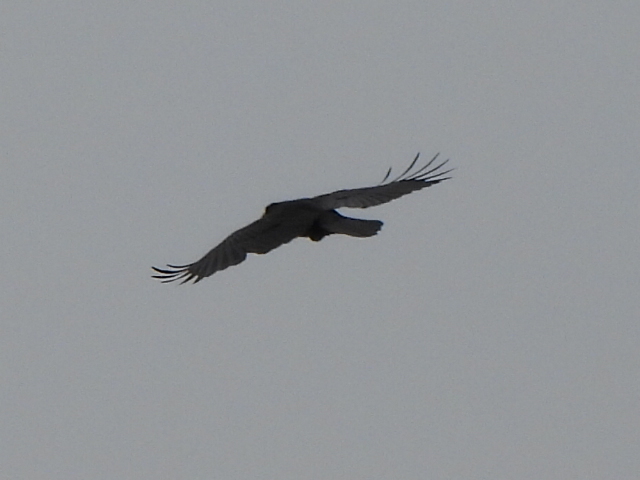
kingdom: Animalia
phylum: Chordata
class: Aves
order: Passeriformes
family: Corvidae
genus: Corvus
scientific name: Corvus brachyrhynchos
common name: American crow
